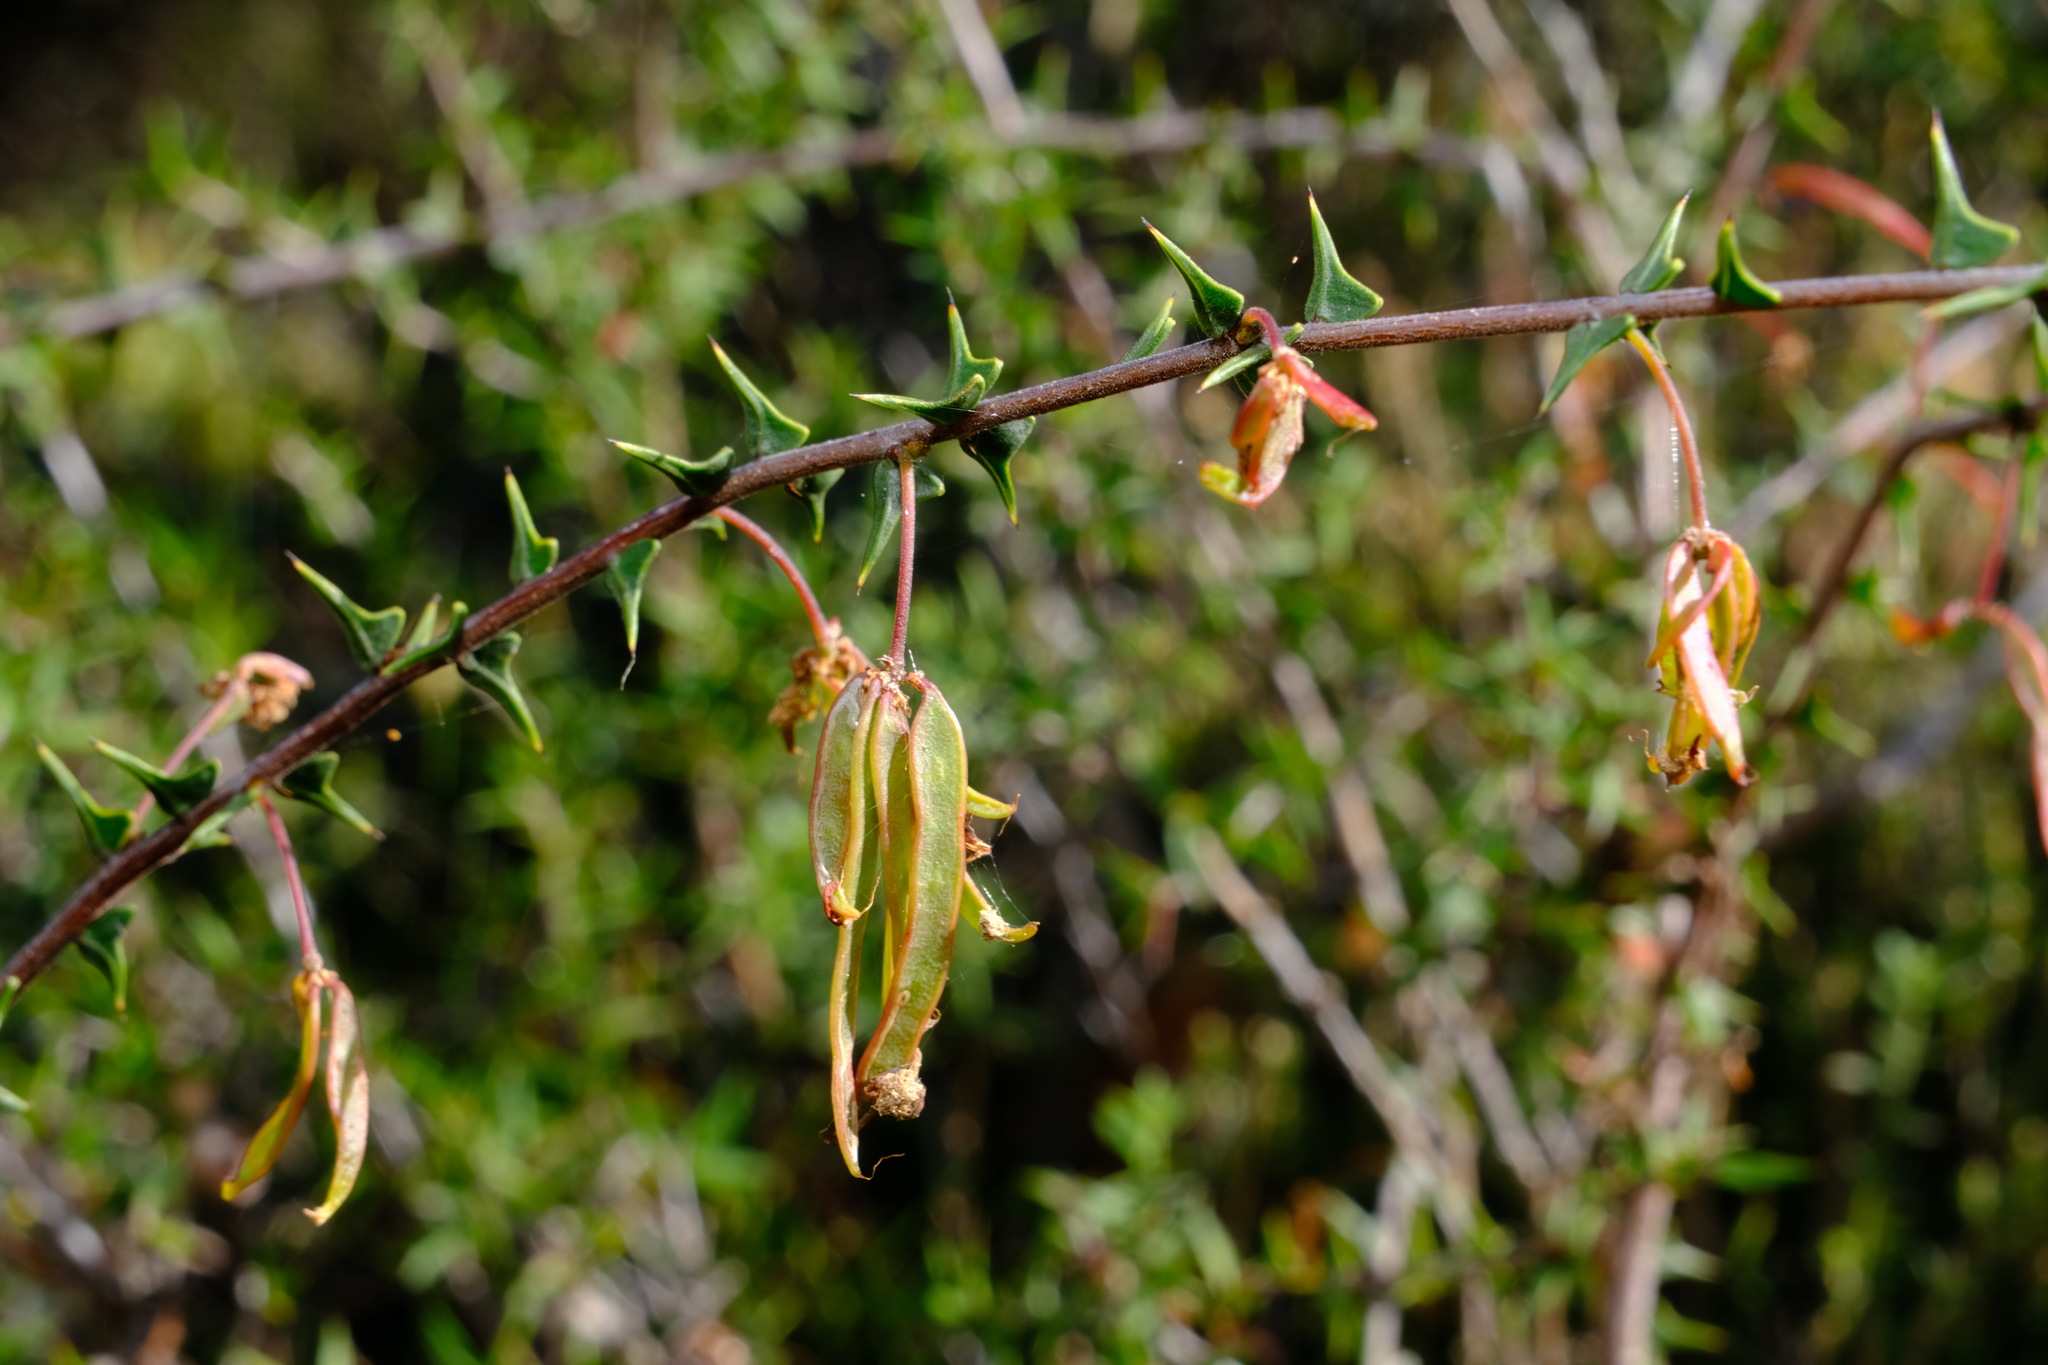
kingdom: Plantae
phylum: Tracheophyta
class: Magnoliopsida
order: Fabales
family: Fabaceae
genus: Acacia
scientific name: Acacia gunnii
